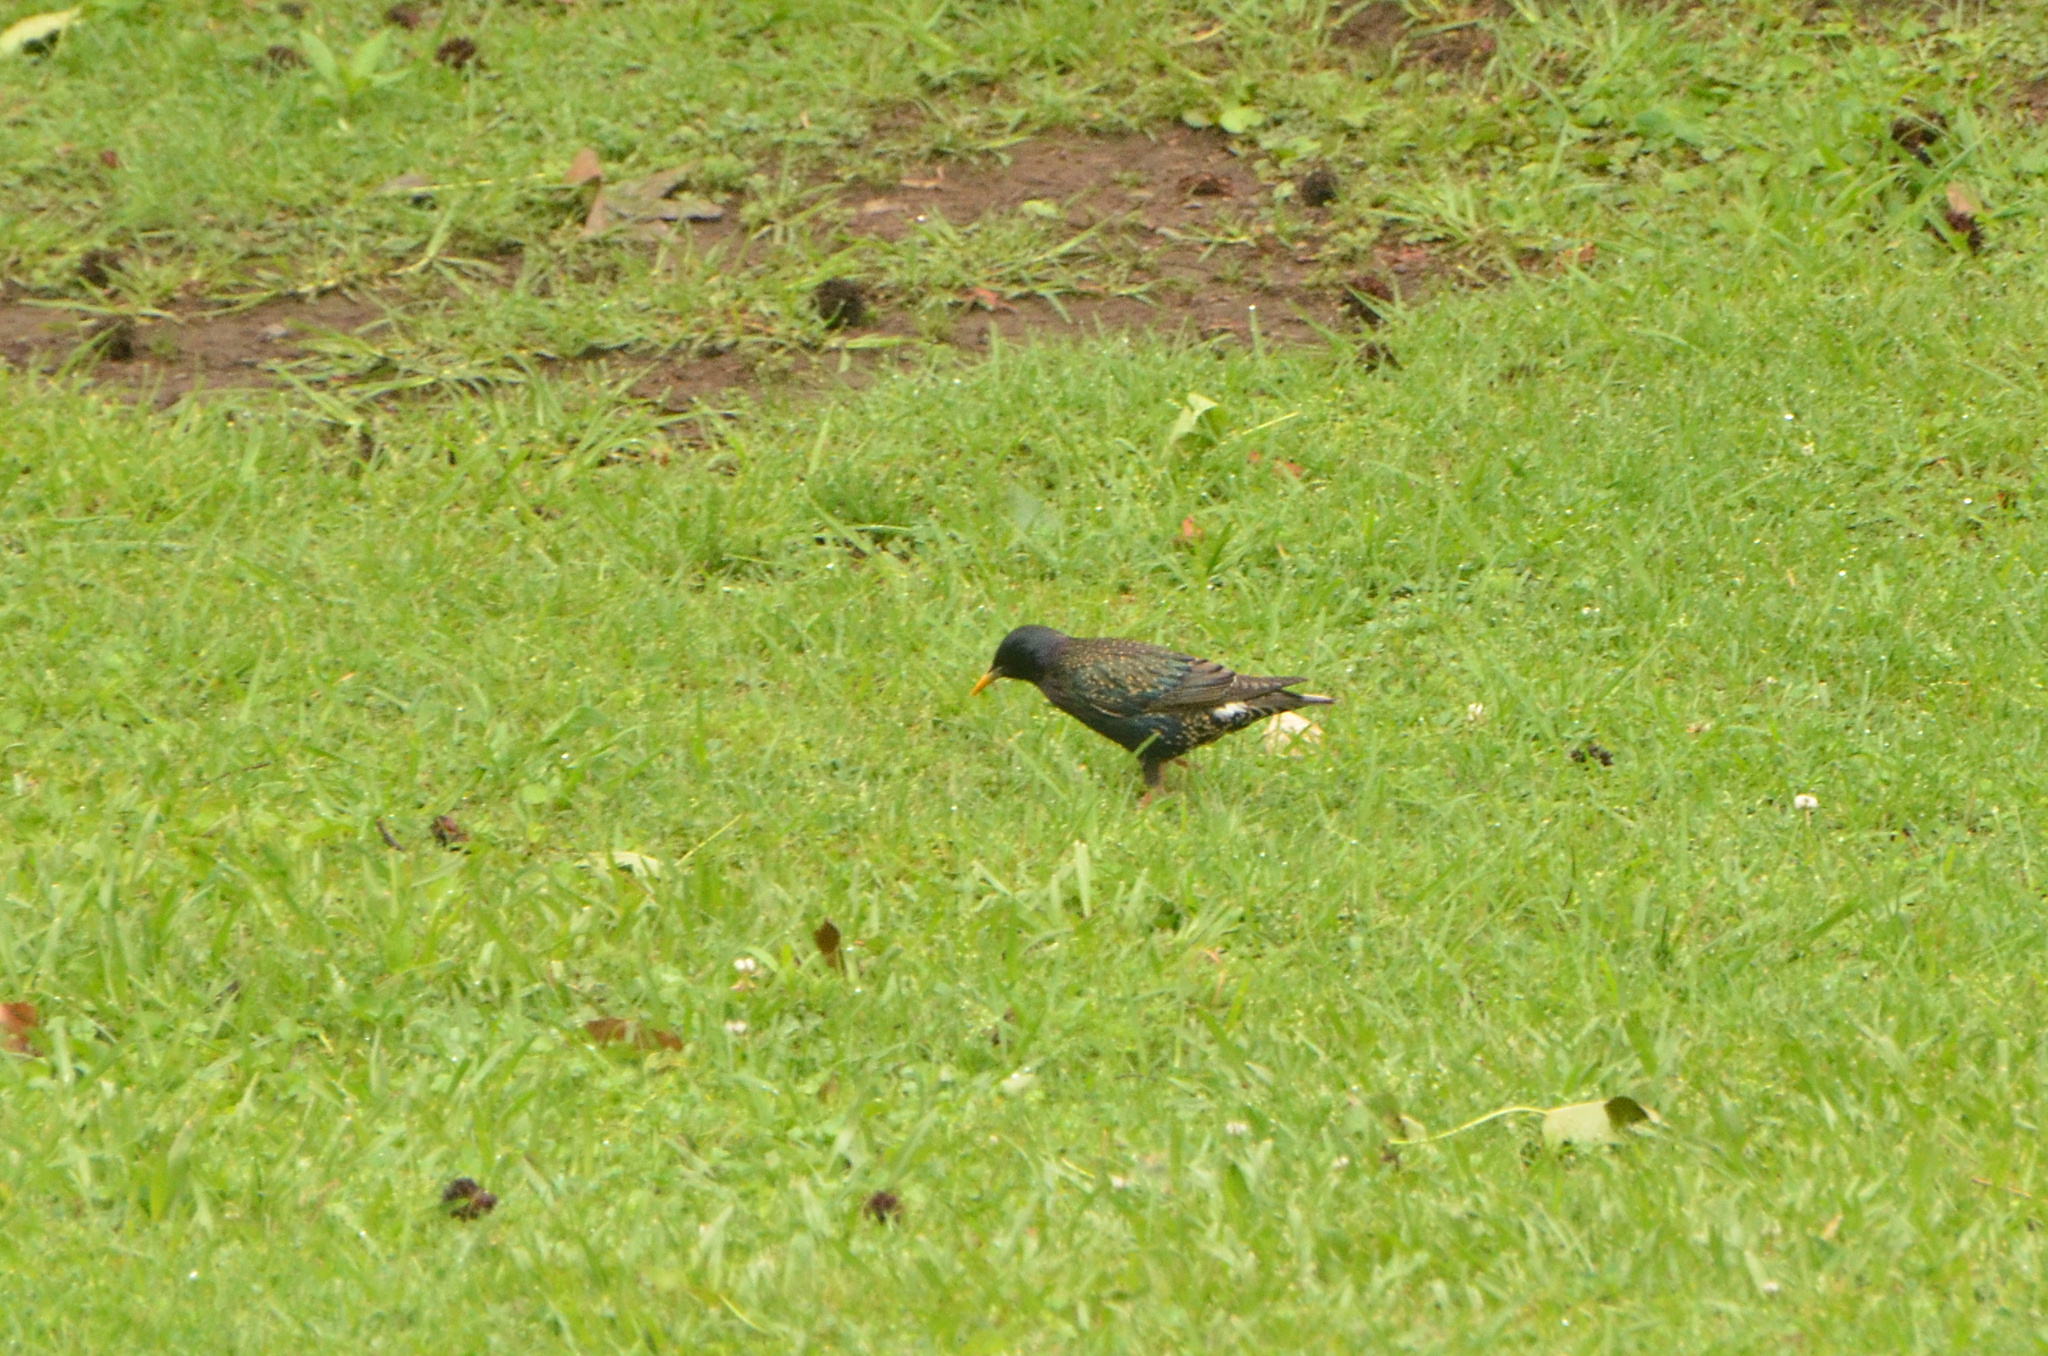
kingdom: Animalia
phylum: Chordata
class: Aves
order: Passeriformes
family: Sturnidae
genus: Sturnus
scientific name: Sturnus vulgaris
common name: Common starling
